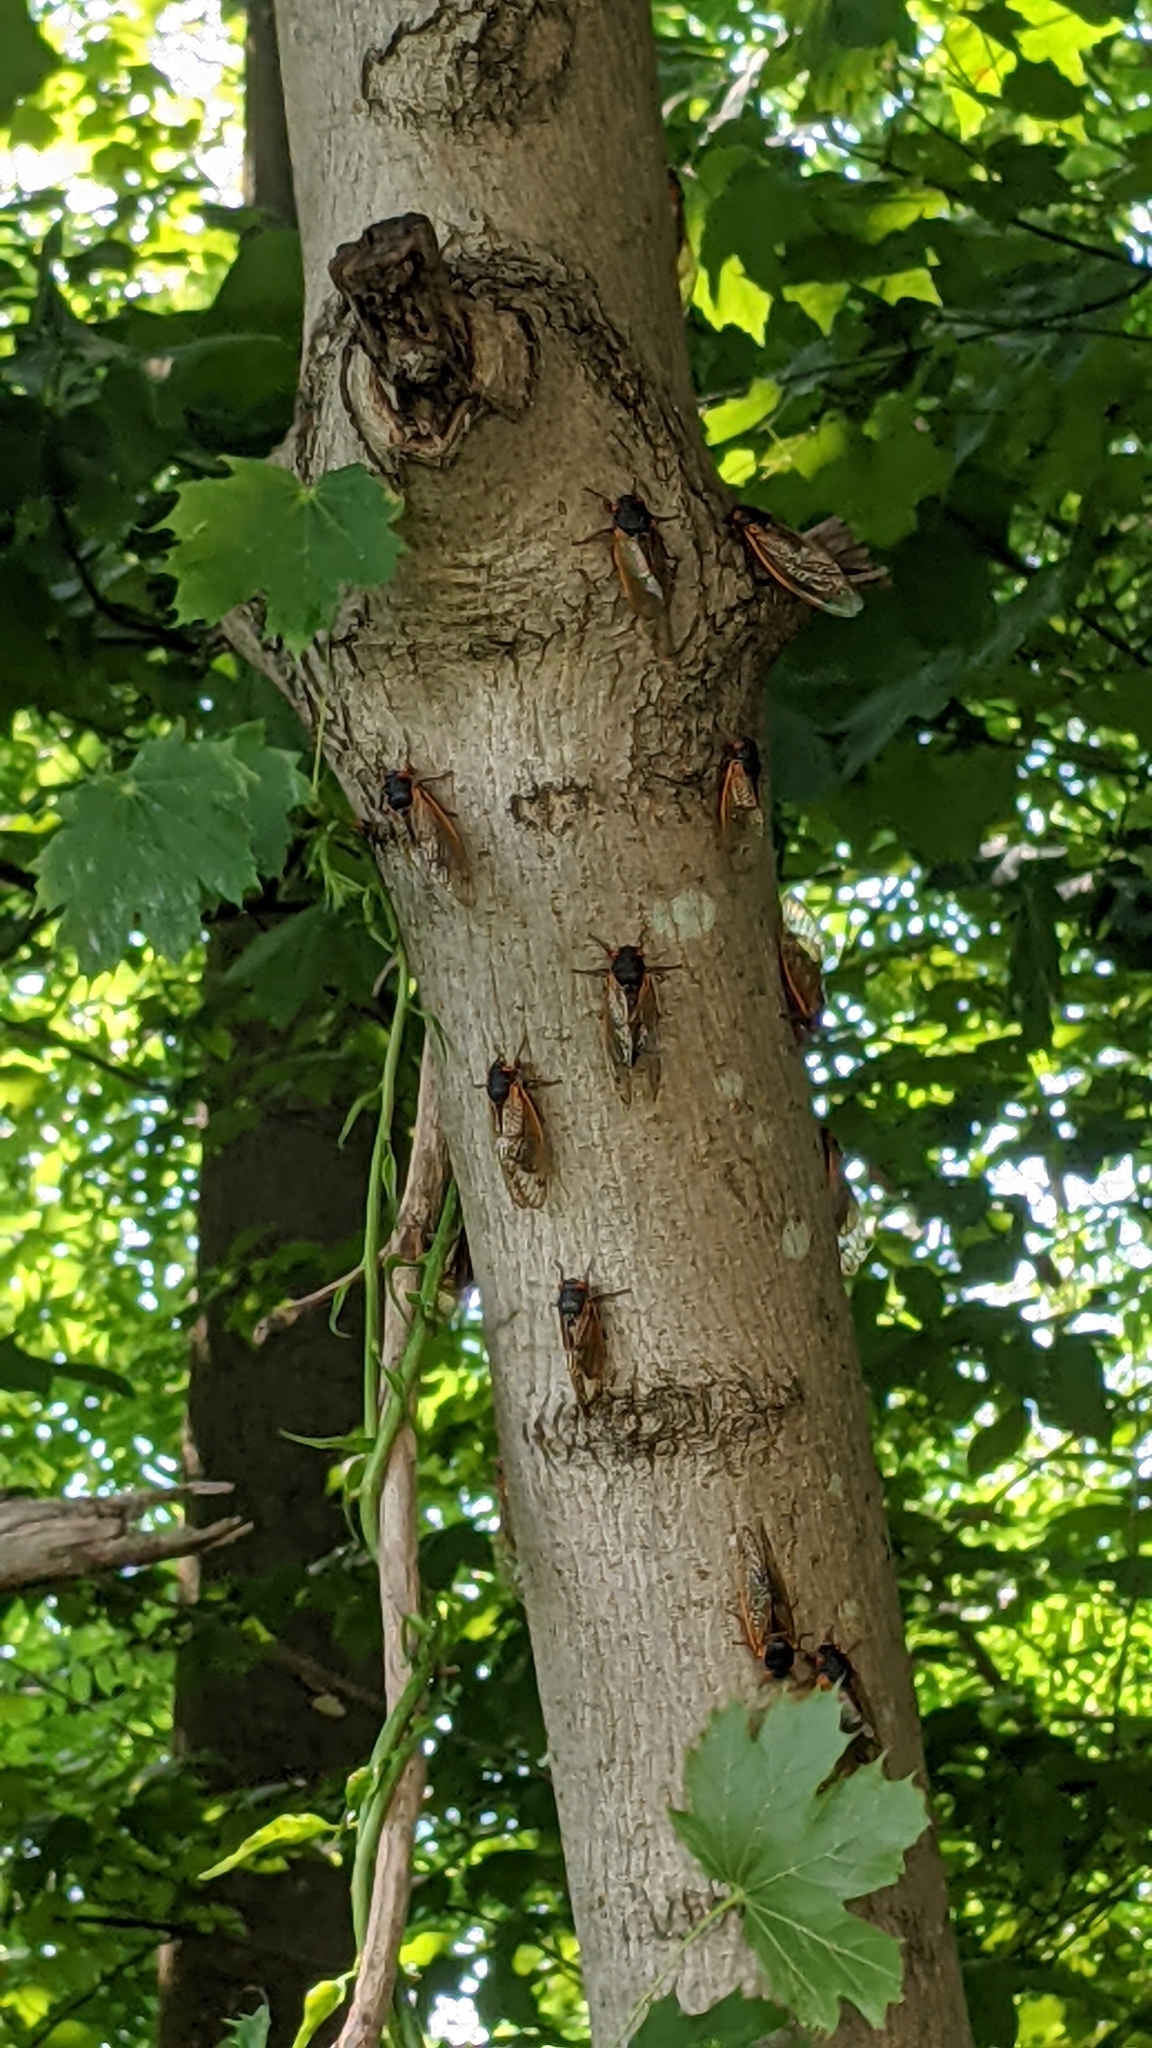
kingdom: Animalia
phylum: Arthropoda
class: Insecta
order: Hemiptera
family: Cicadidae
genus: Magicicada
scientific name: Magicicada
